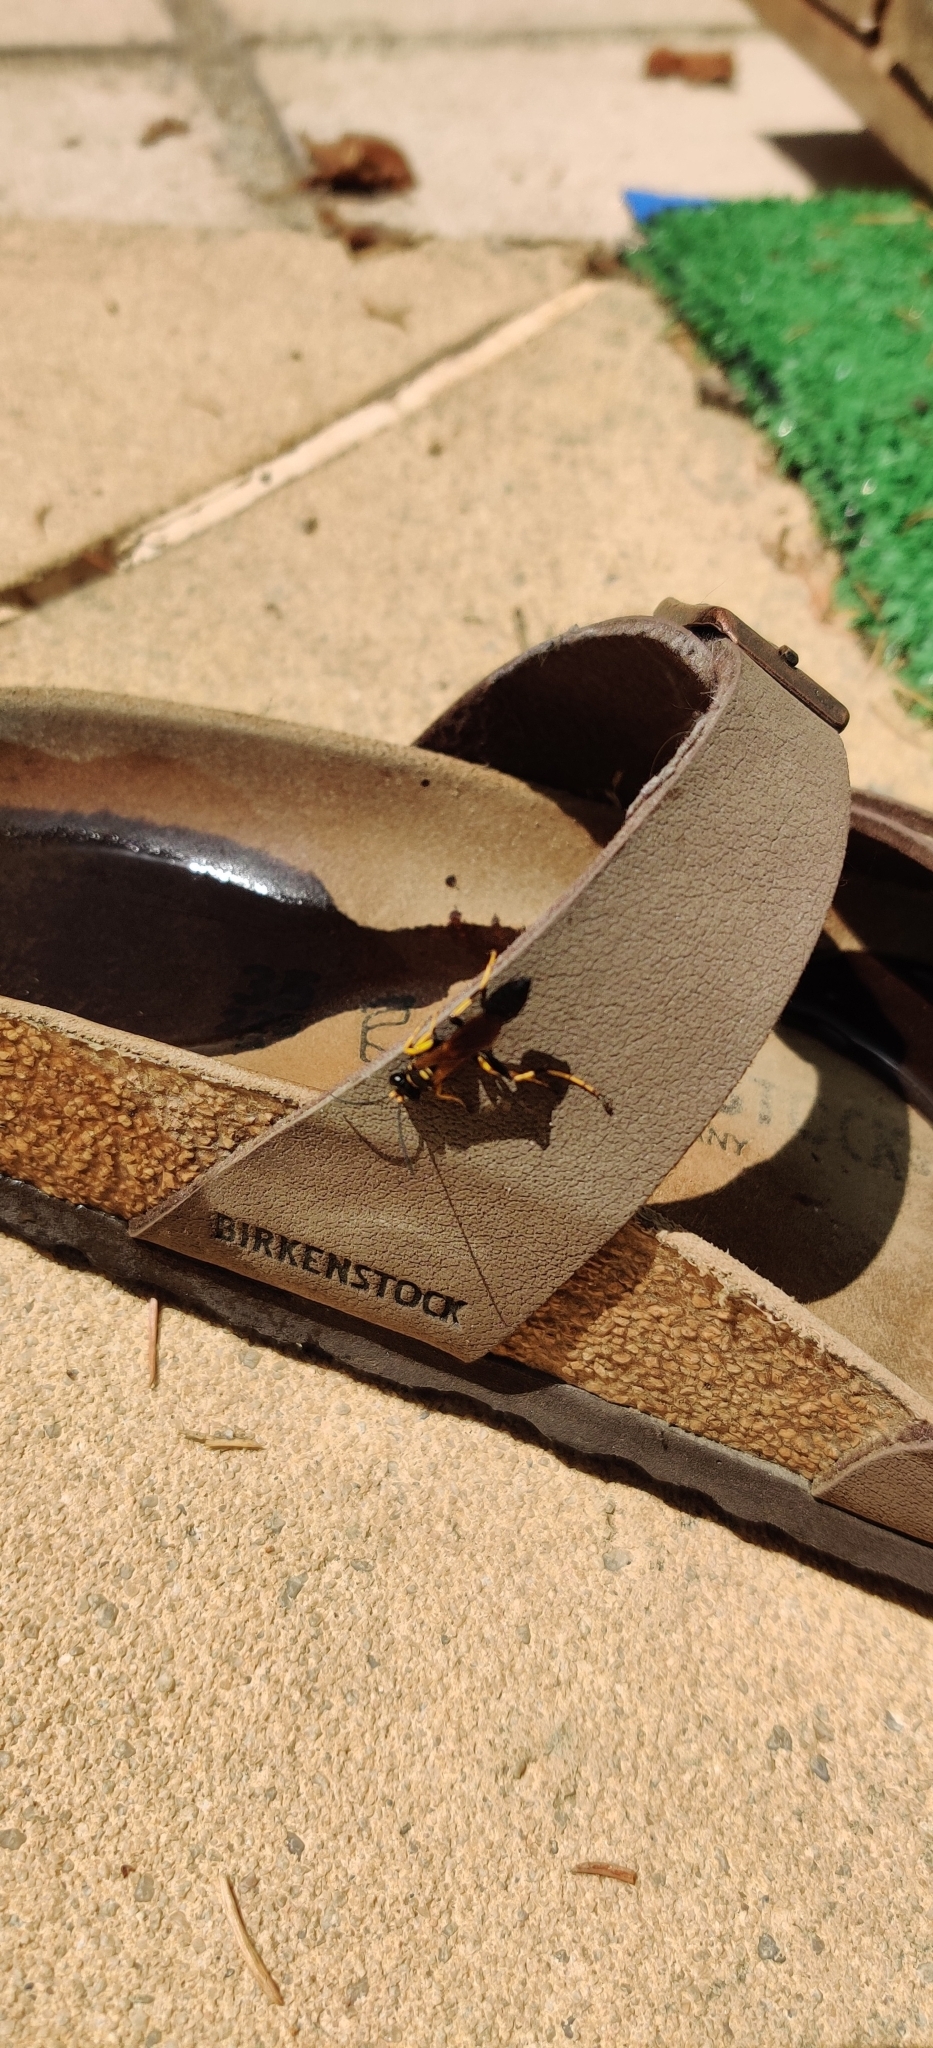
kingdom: Animalia
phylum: Arthropoda
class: Insecta
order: Hymenoptera
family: Sphecidae
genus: Sceliphron
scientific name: Sceliphron caementarium
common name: Mud dauber
